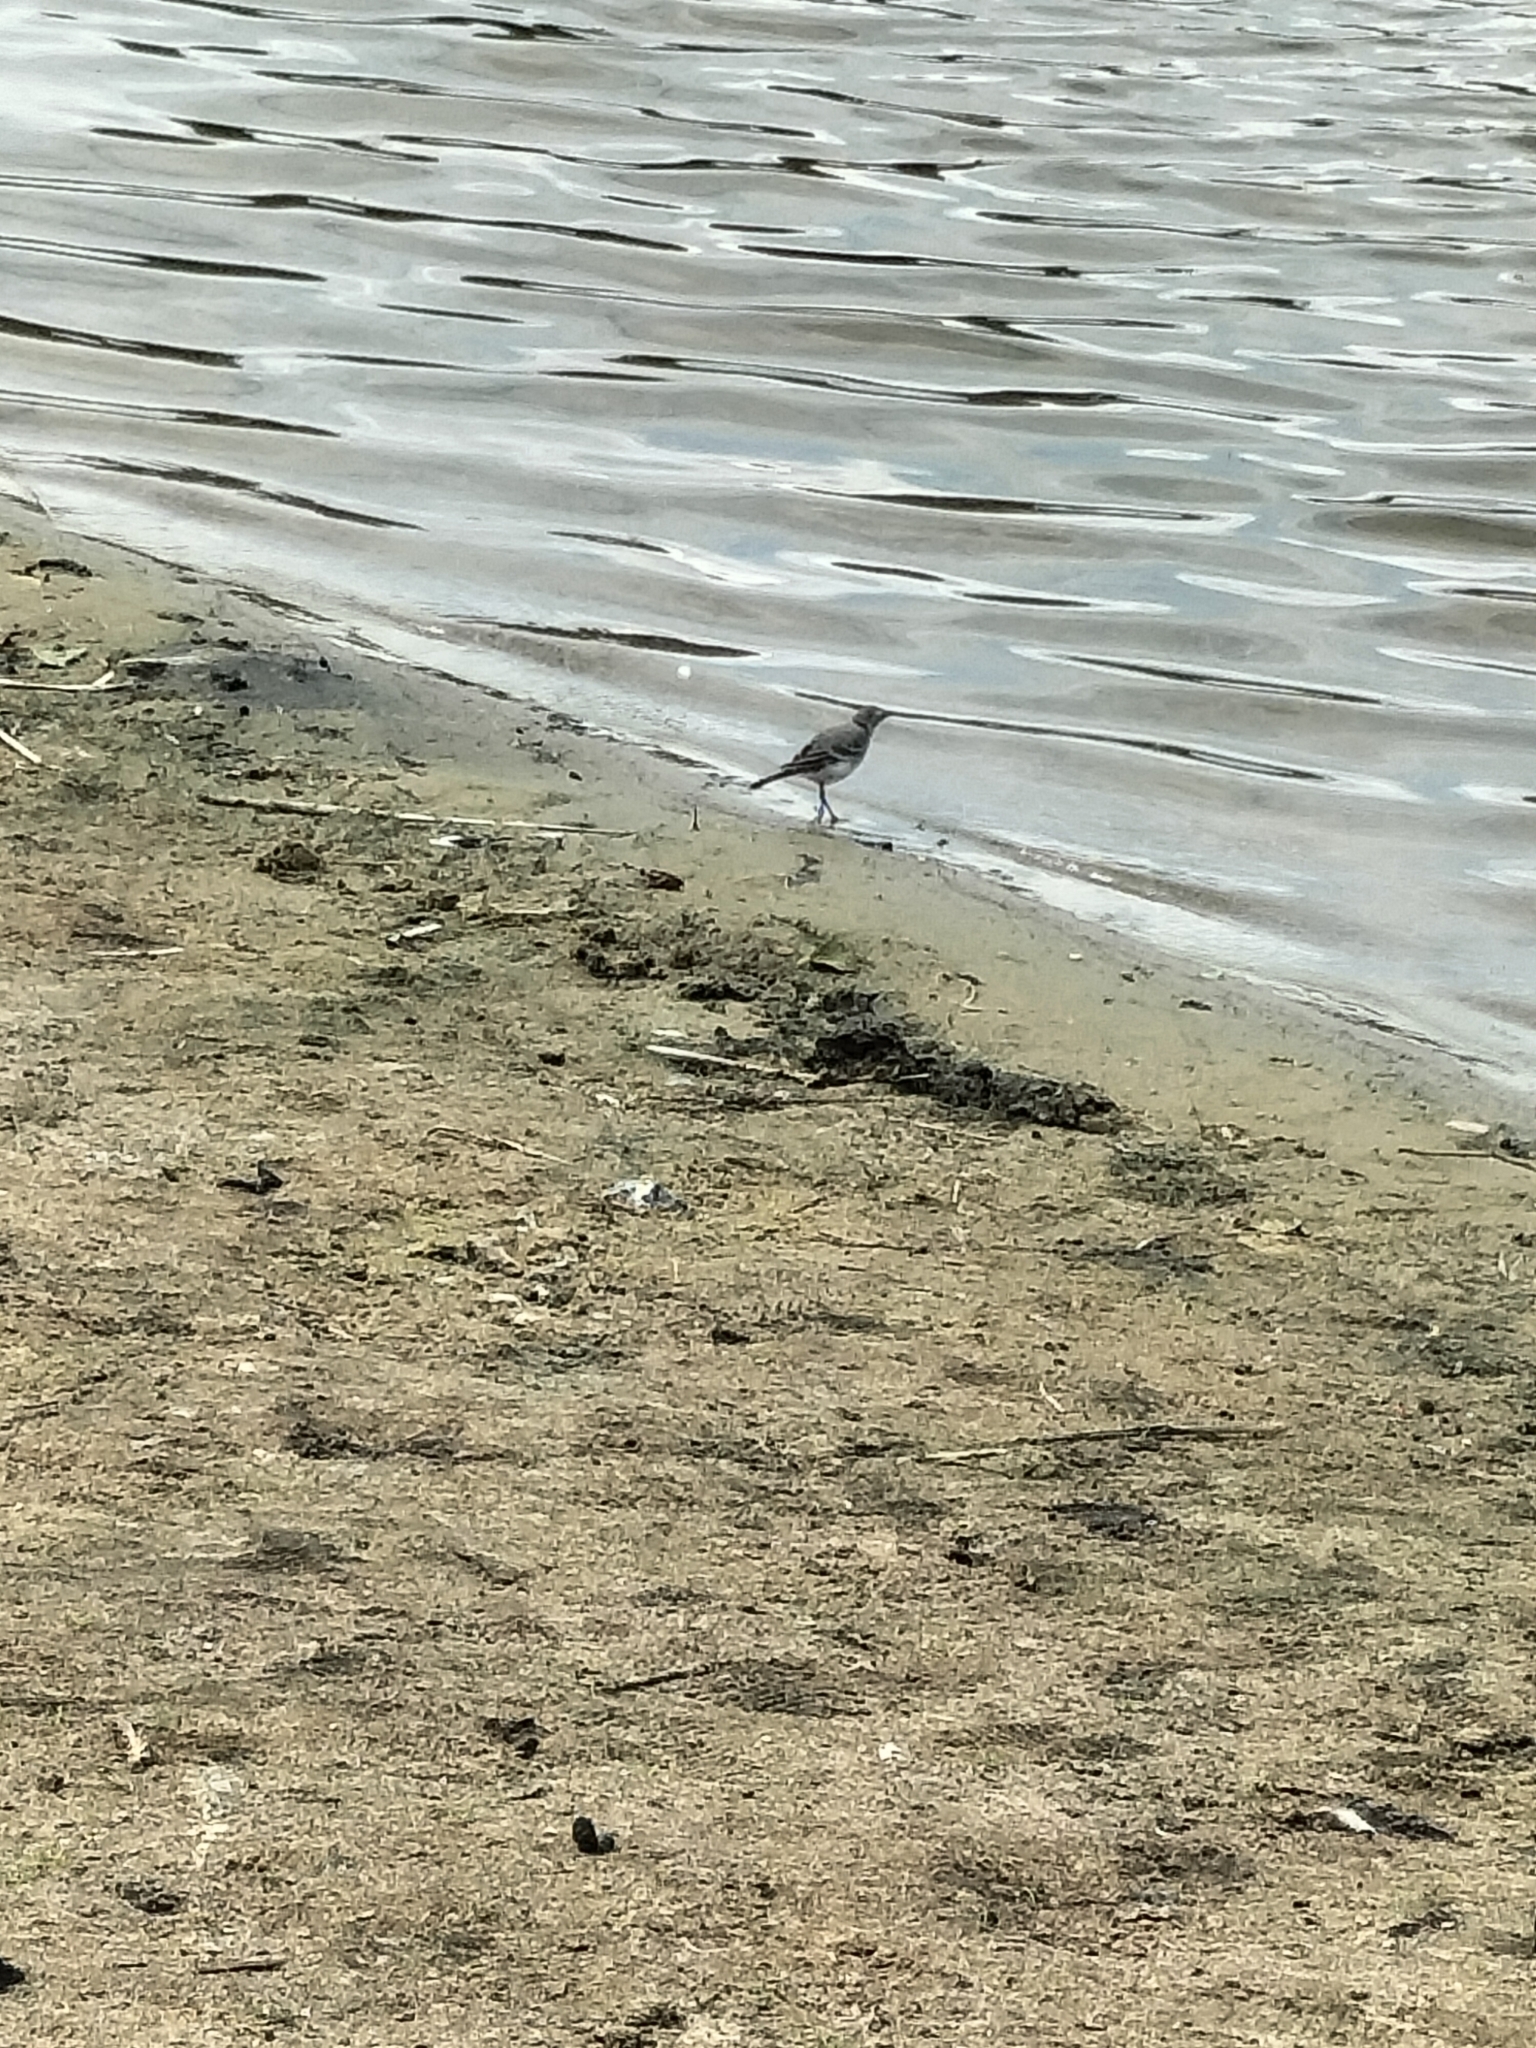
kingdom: Animalia
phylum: Chordata
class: Aves
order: Passeriformes
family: Motacillidae
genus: Motacilla
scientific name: Motacilla alba
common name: White wagtail
